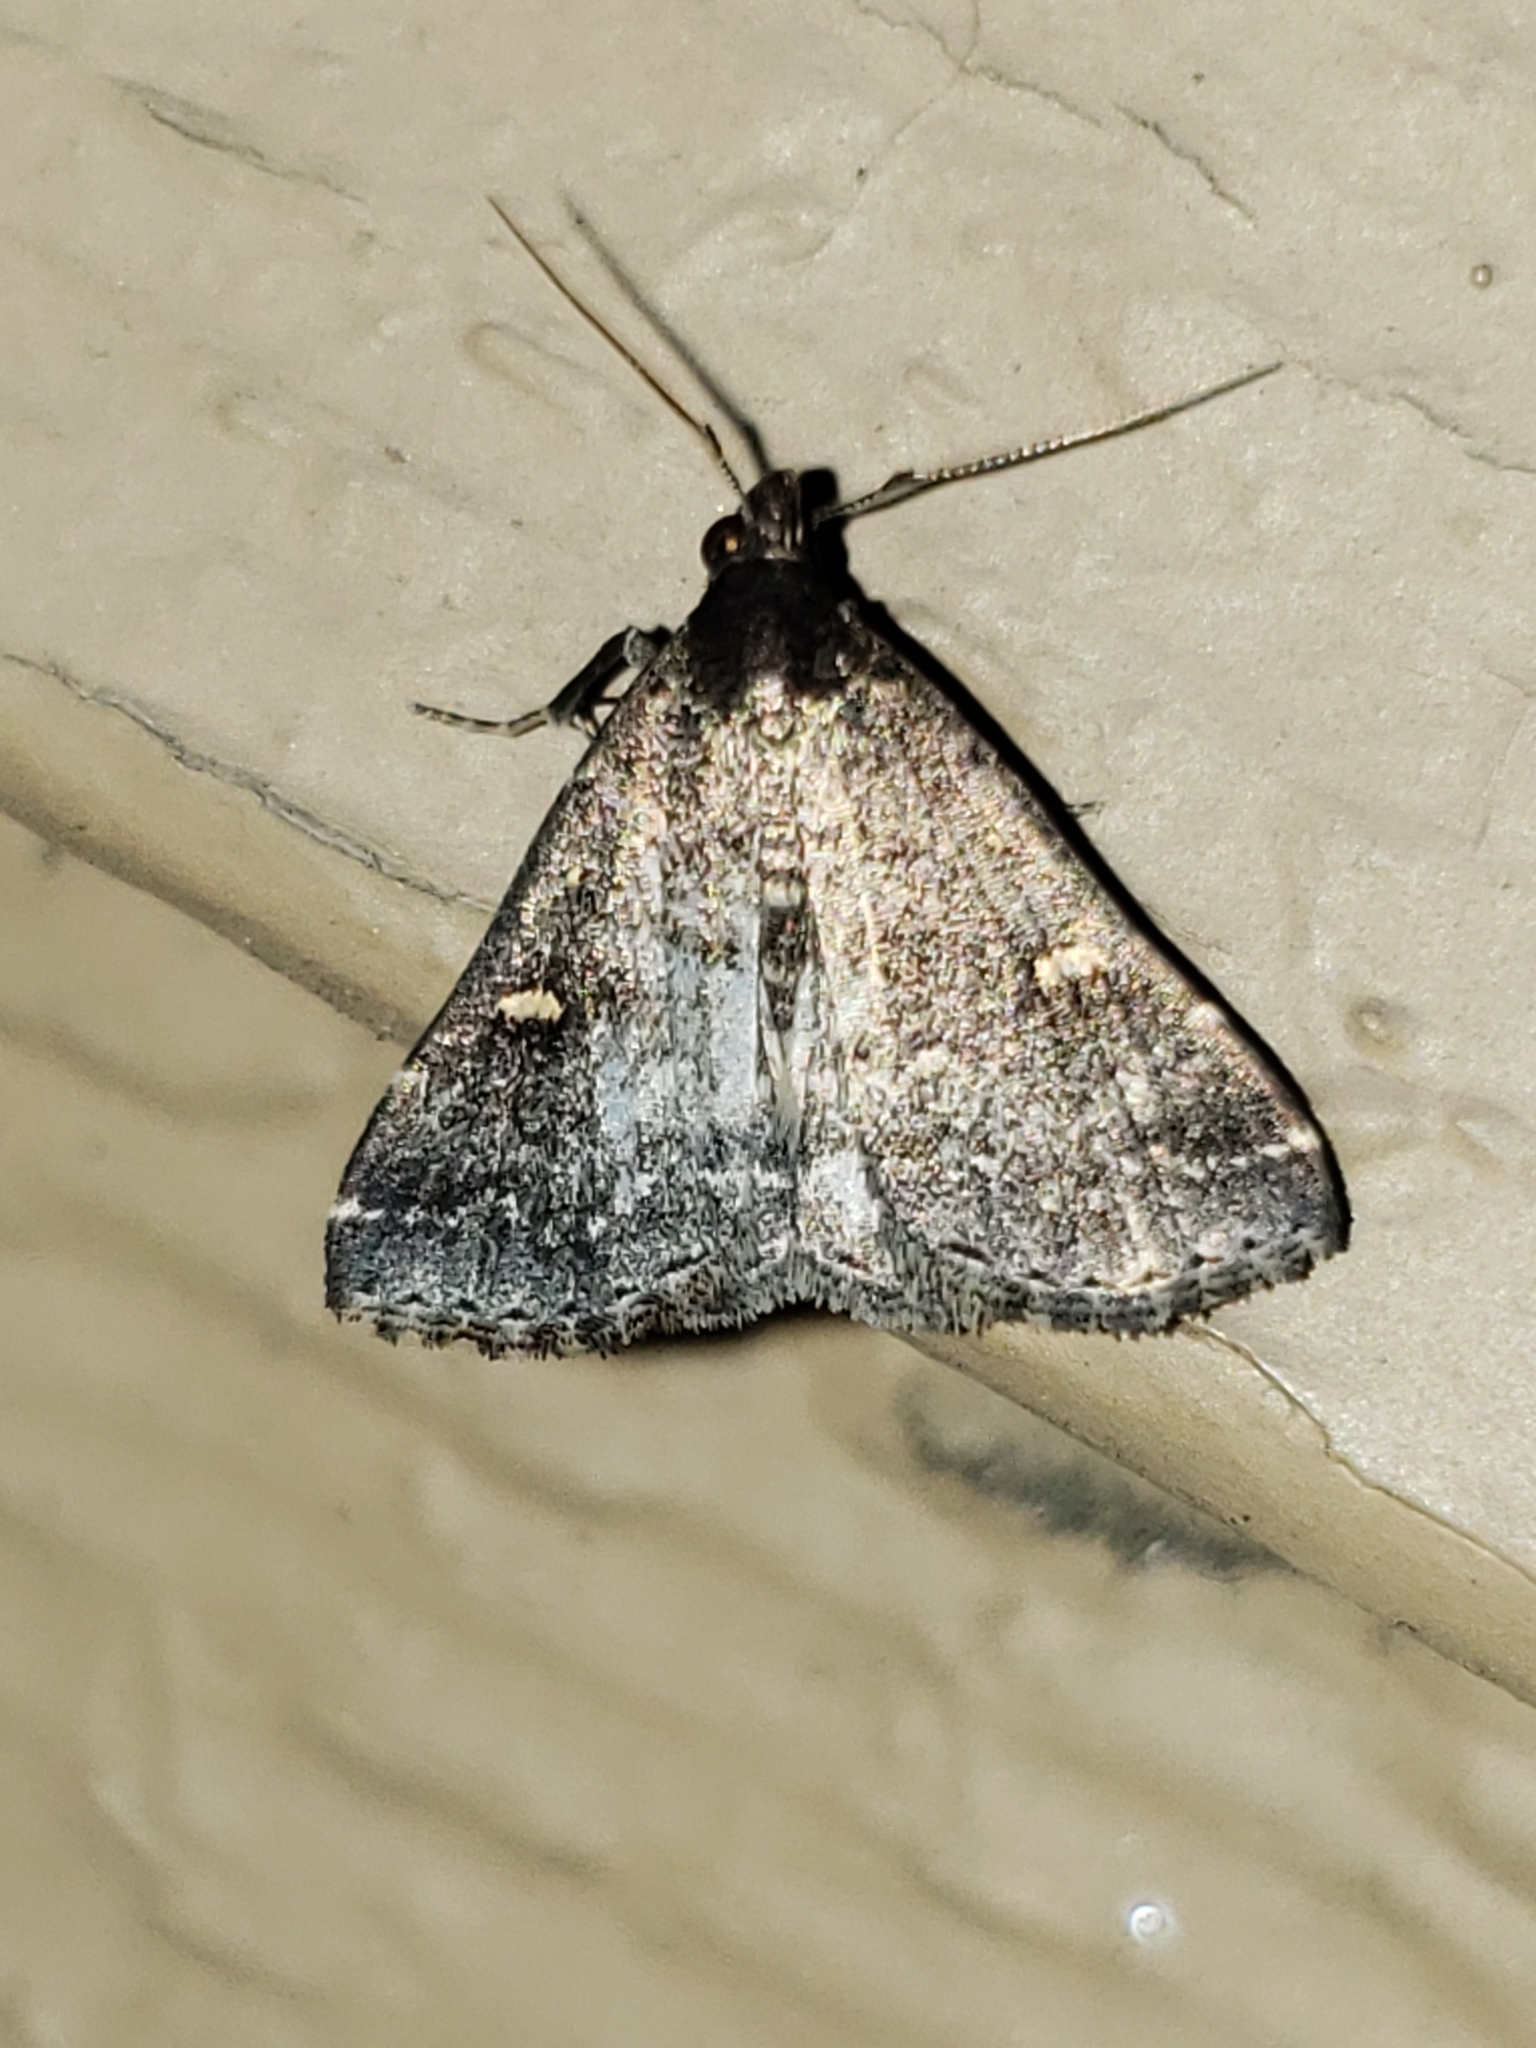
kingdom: Animalia
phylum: Arthropoda
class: Insecta
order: Lepidoptera
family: Erebidae
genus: Tetanolita
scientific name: Tetanolita mynesalis
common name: Smoky tetanolita moth
